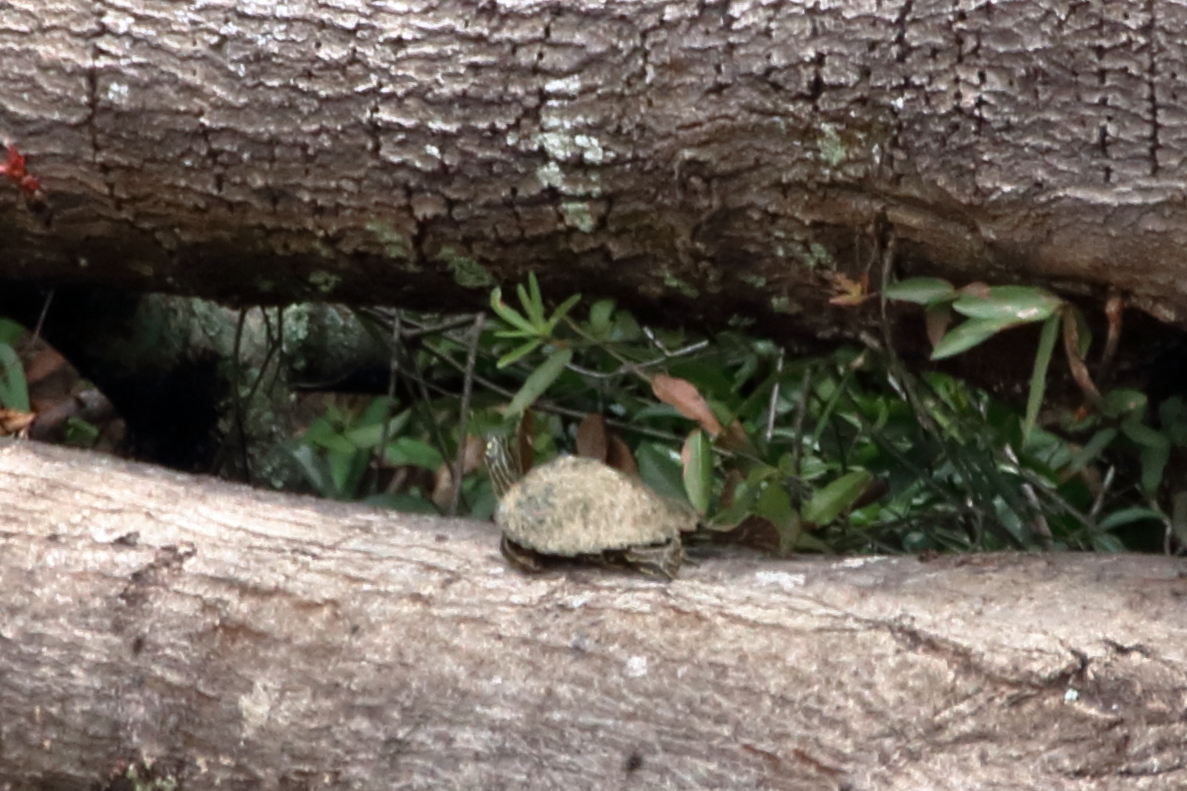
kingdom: Animalia
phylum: Chordata
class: Testudines
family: Emydidae
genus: Graptemys
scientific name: Graptemys oculifera
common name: Ringed map turtle
